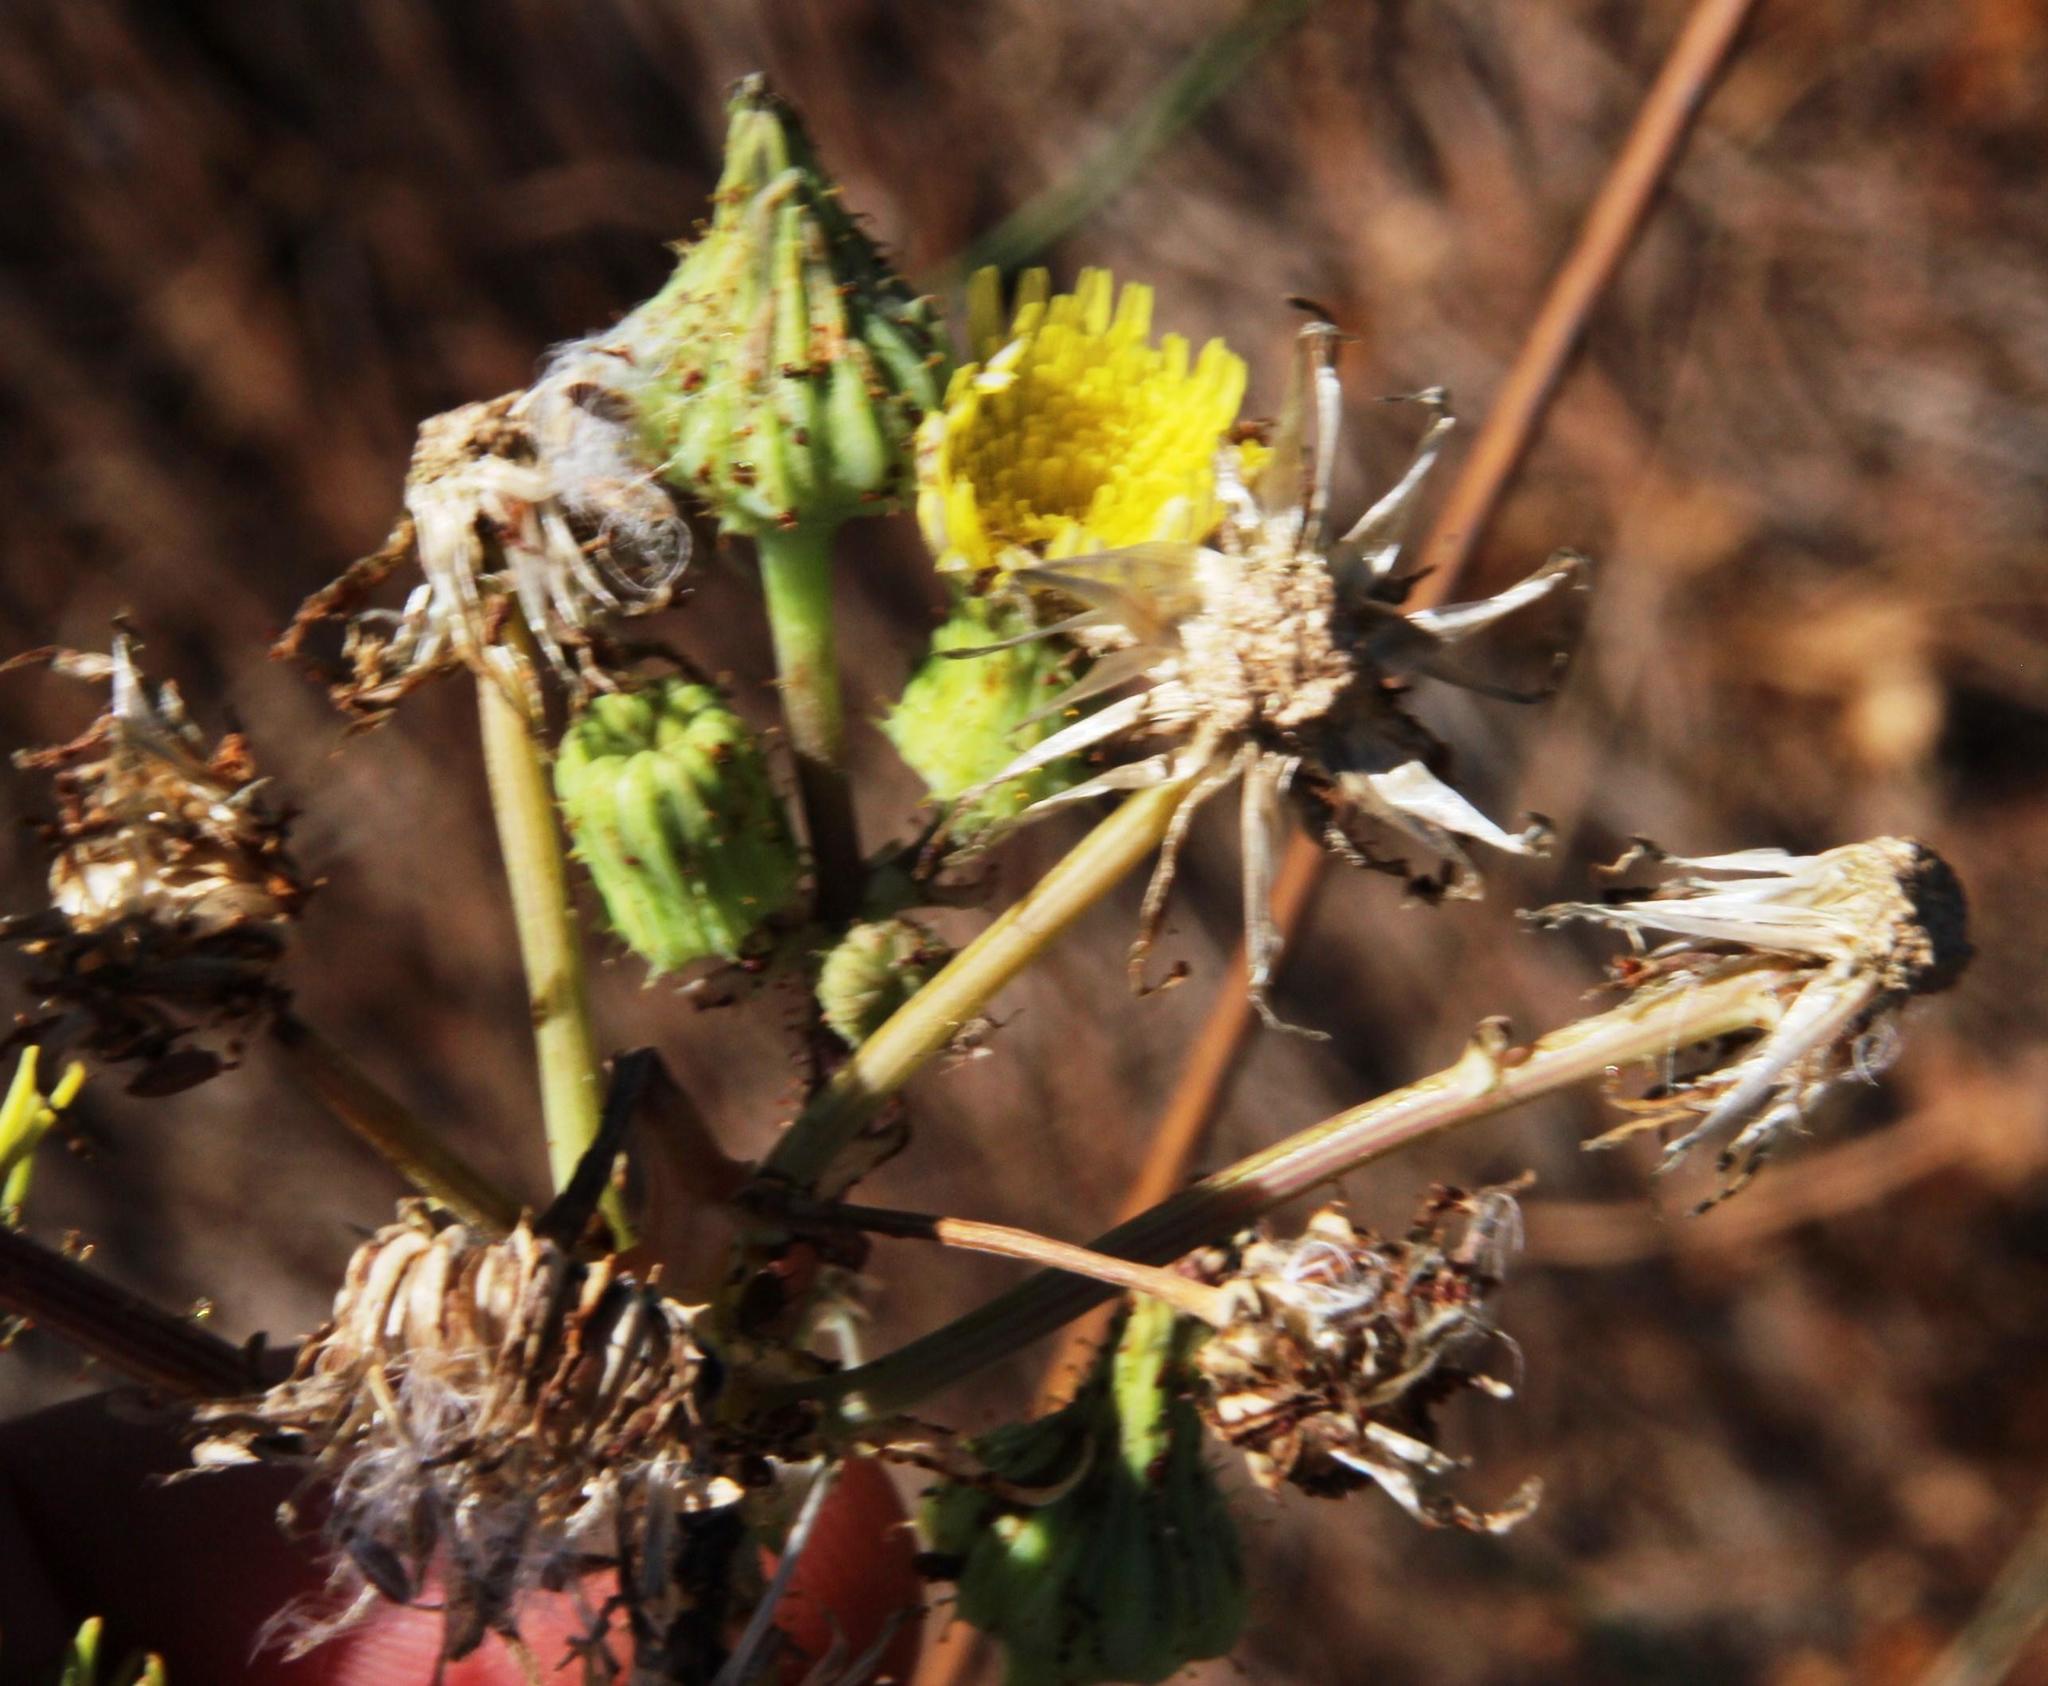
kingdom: Plantae
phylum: Tracheophyta
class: Magnoliopsida
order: Asterales
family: Asteraceae
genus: Sonchus
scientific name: Sonchus asper
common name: Prickly sow-thistle
